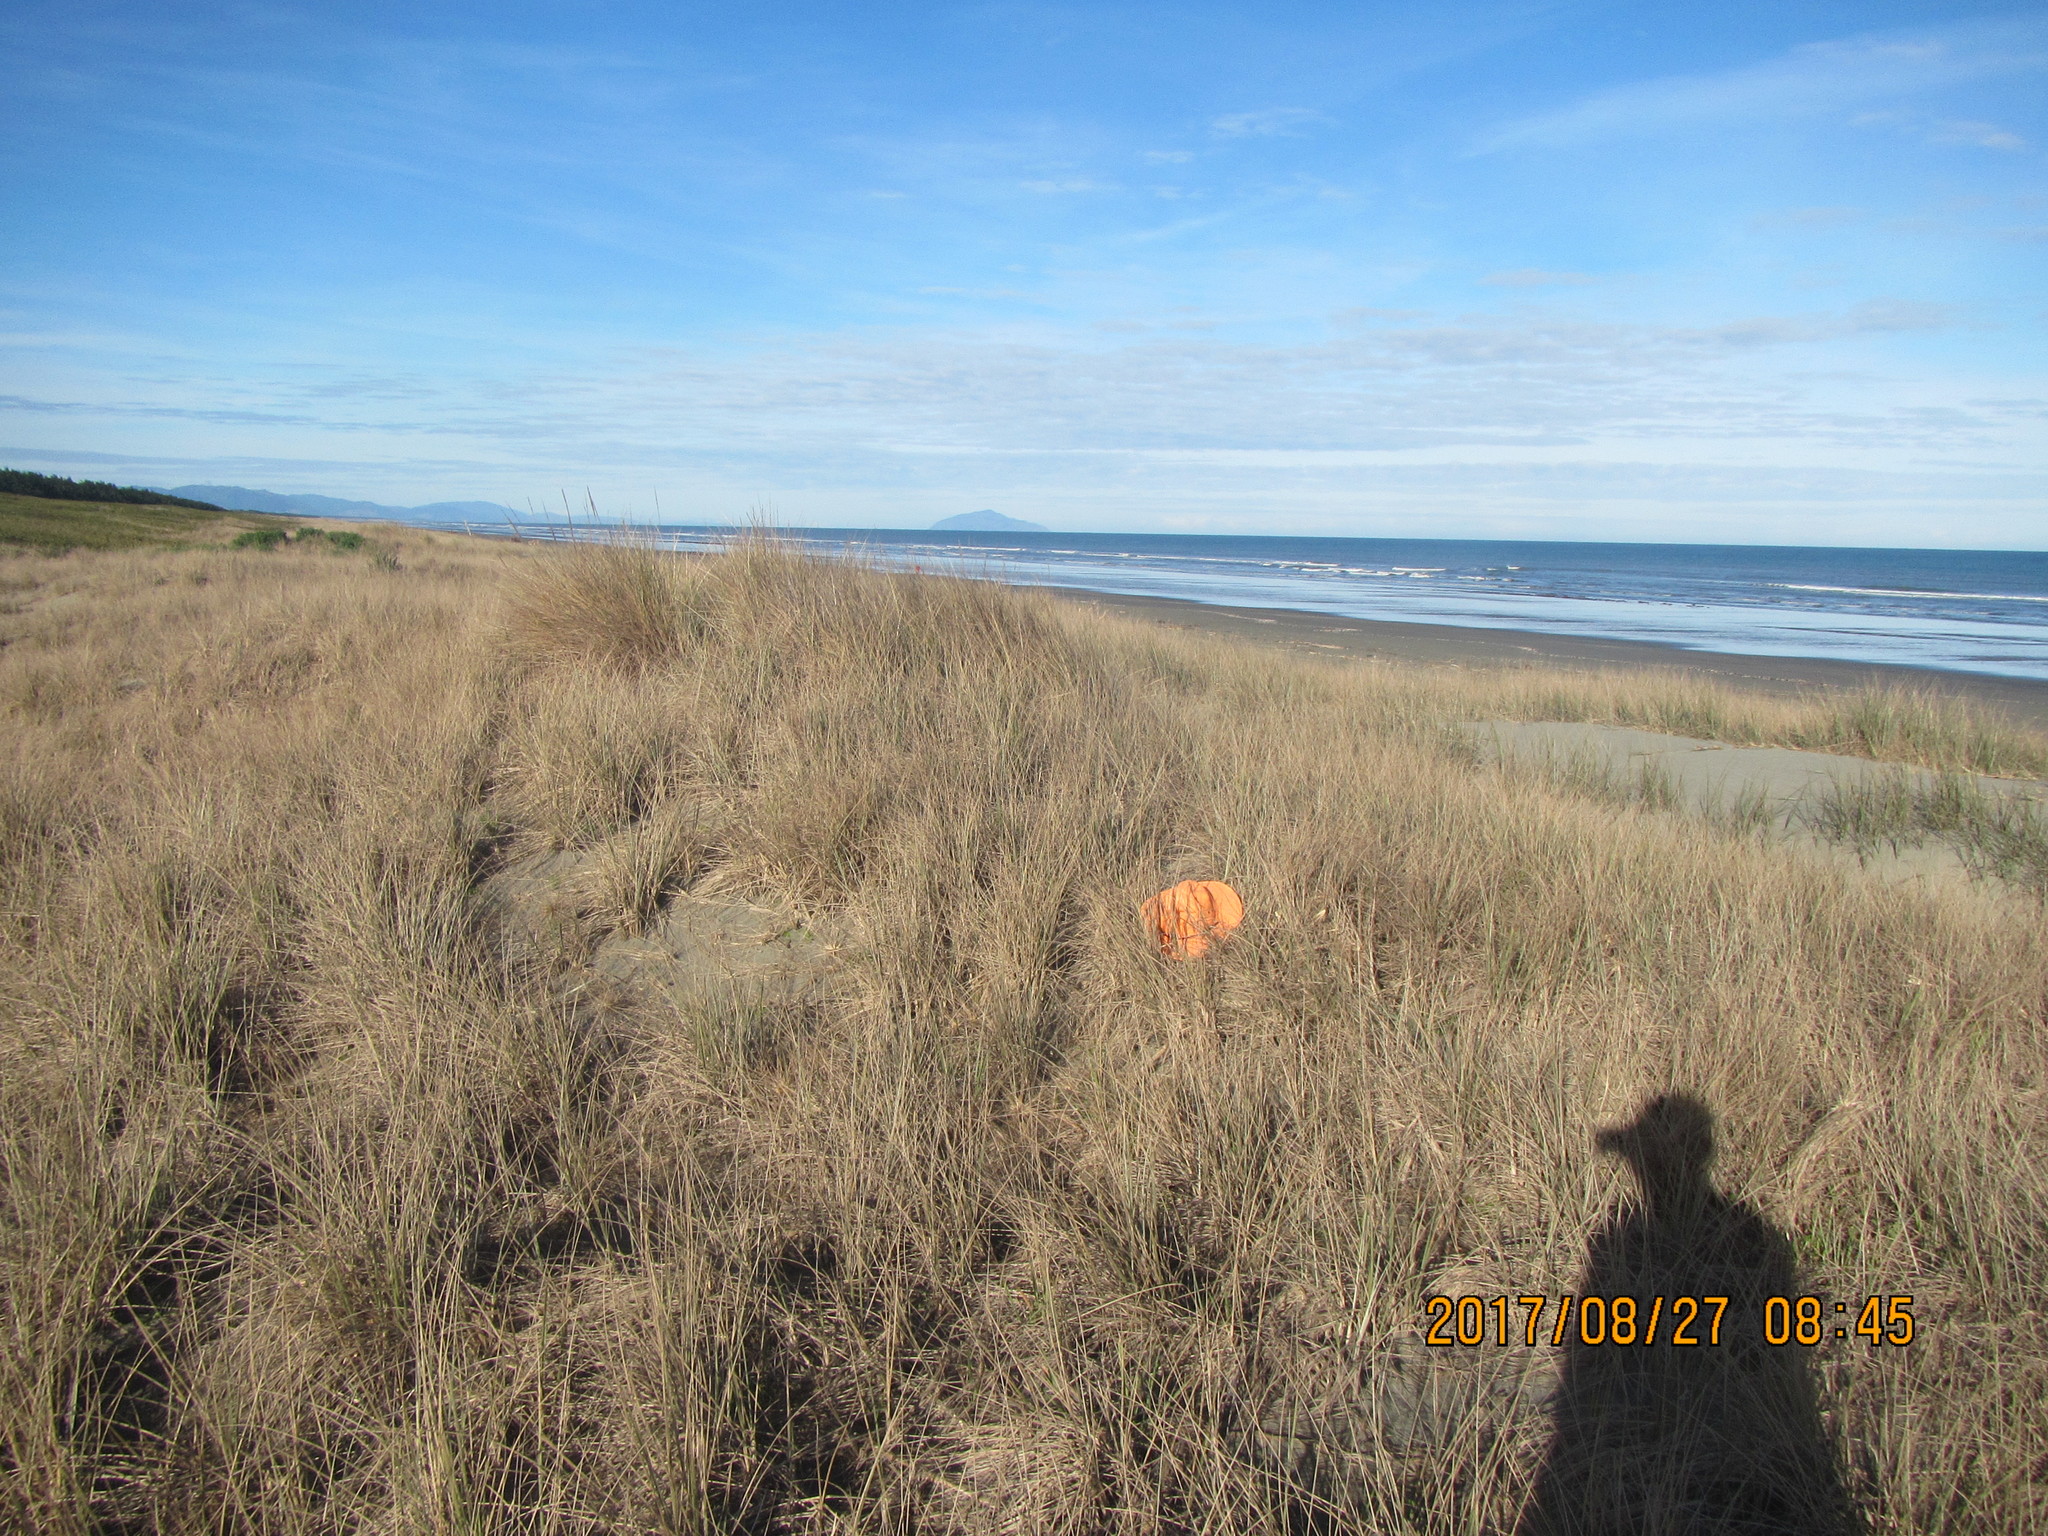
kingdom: Animalia
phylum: Mollusca
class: Gastropoda
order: Stylommatophora
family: Geomitridae
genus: Xeroplexa
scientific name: Xeroplexa intersecta
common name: Wrinkled snail
